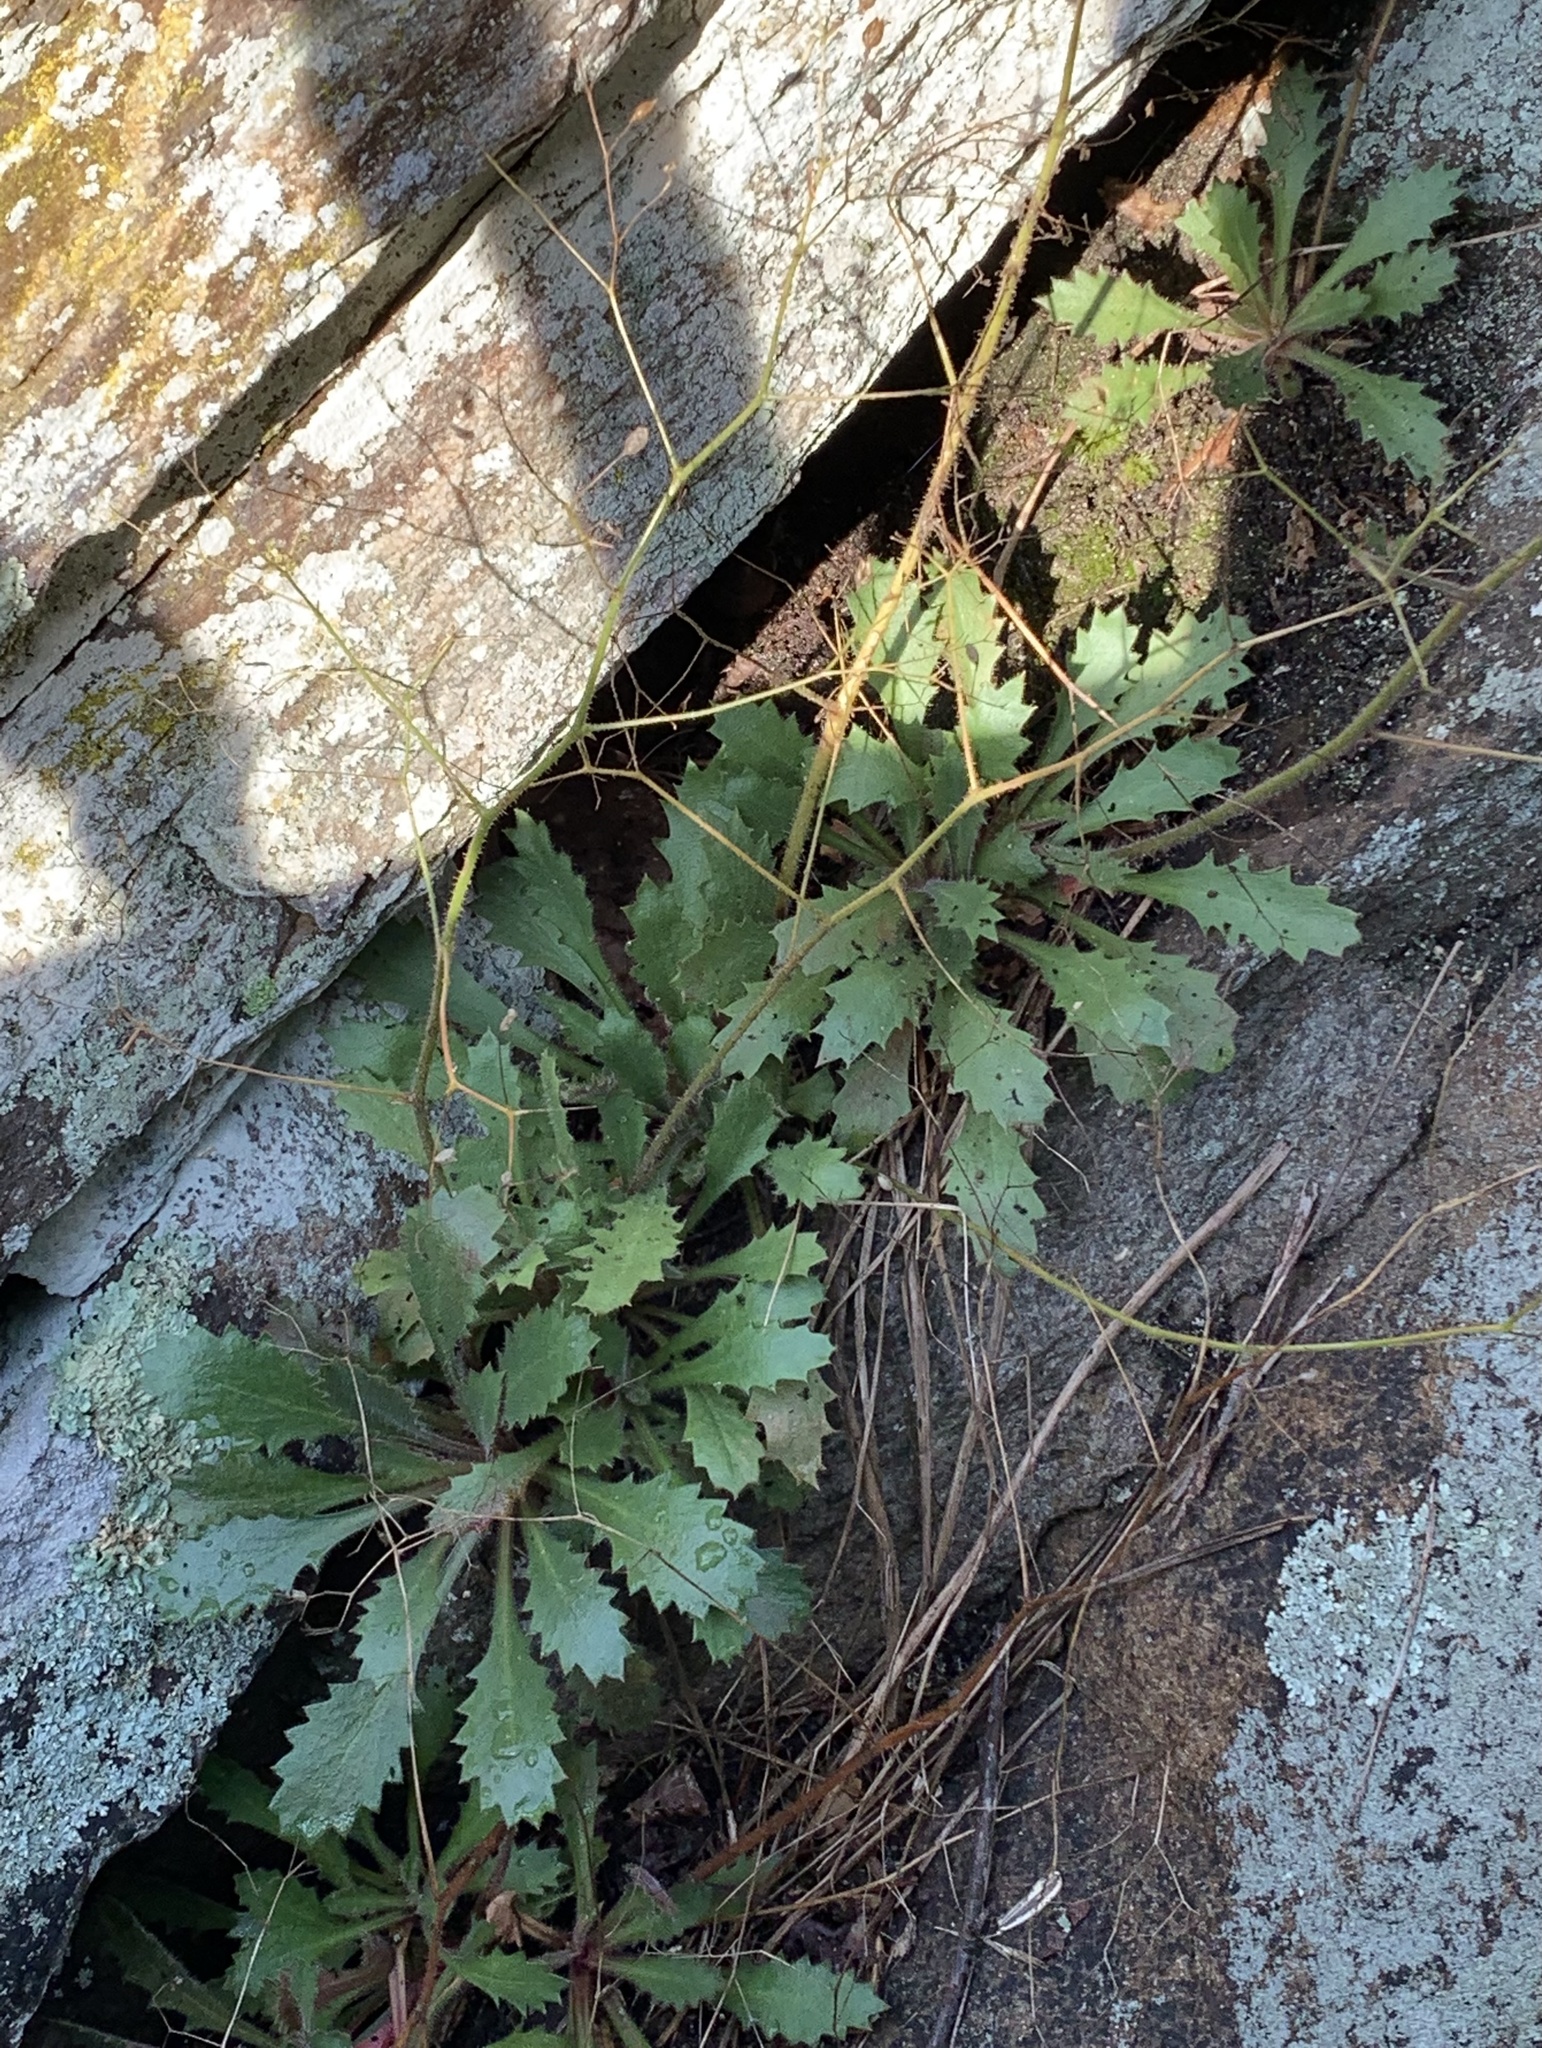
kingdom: Plantae
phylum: Tracheophyta
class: Magnoliopsida
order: Saxifragales
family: Saxifragaceae
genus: Micranthes
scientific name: Micranthes petiolaris
